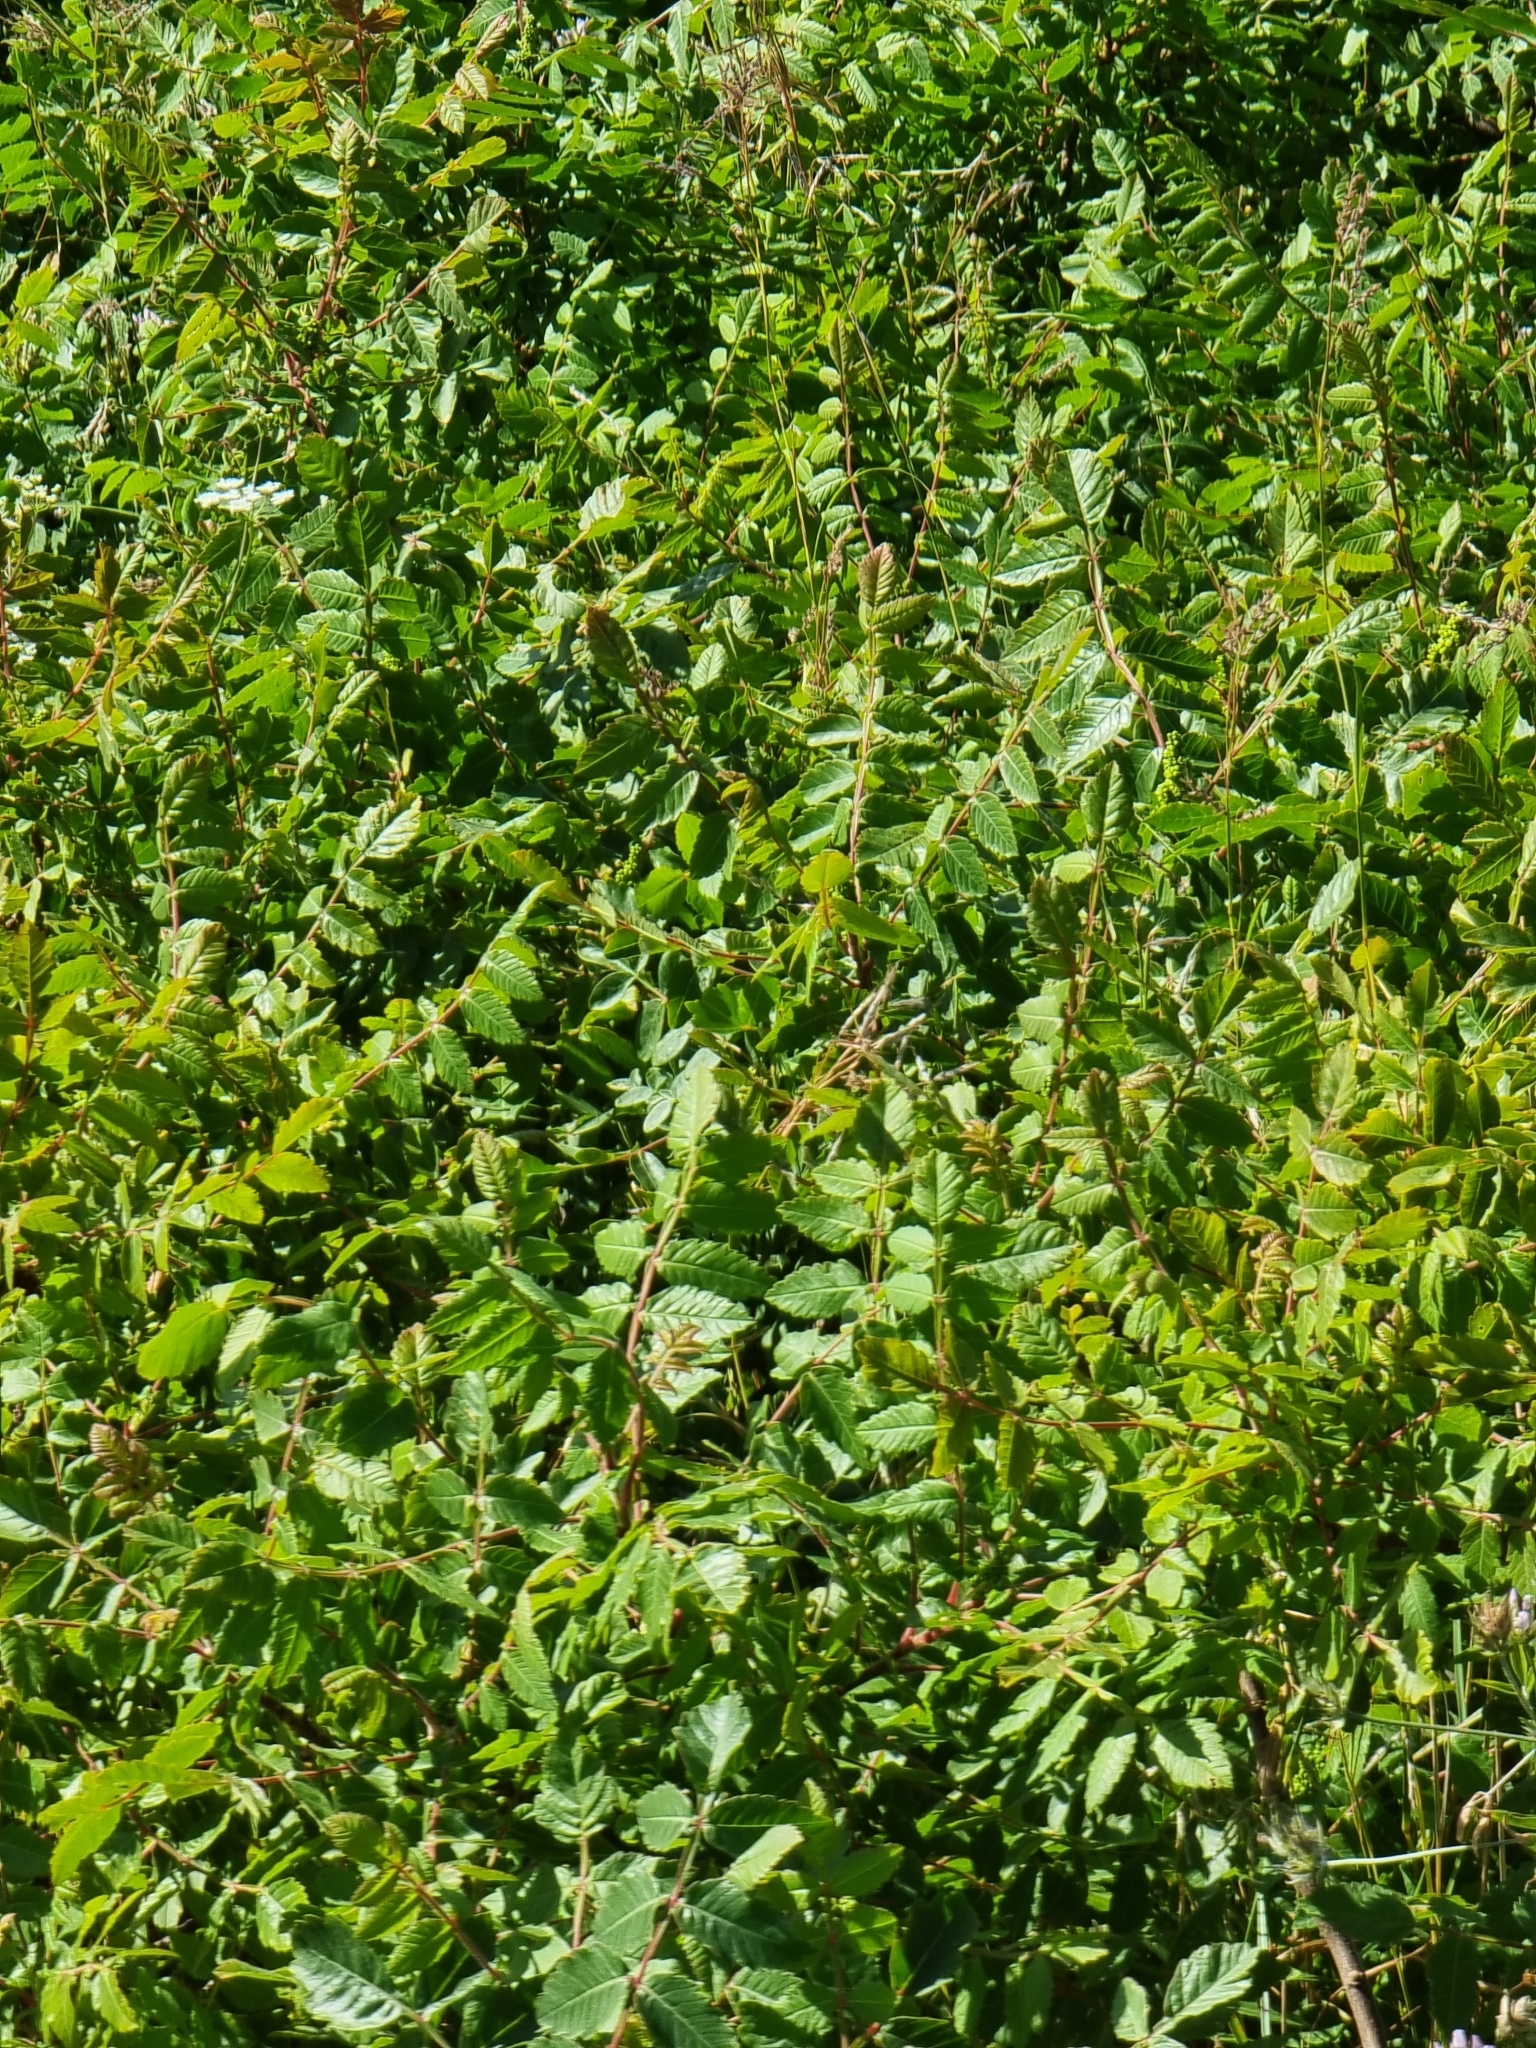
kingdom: Plantae
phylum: Tracheophyta
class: Magnoliopsida
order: Sapindales
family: Anacardiaceae
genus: Rhus
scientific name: Rhus coriaria
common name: Tanner's sumach
